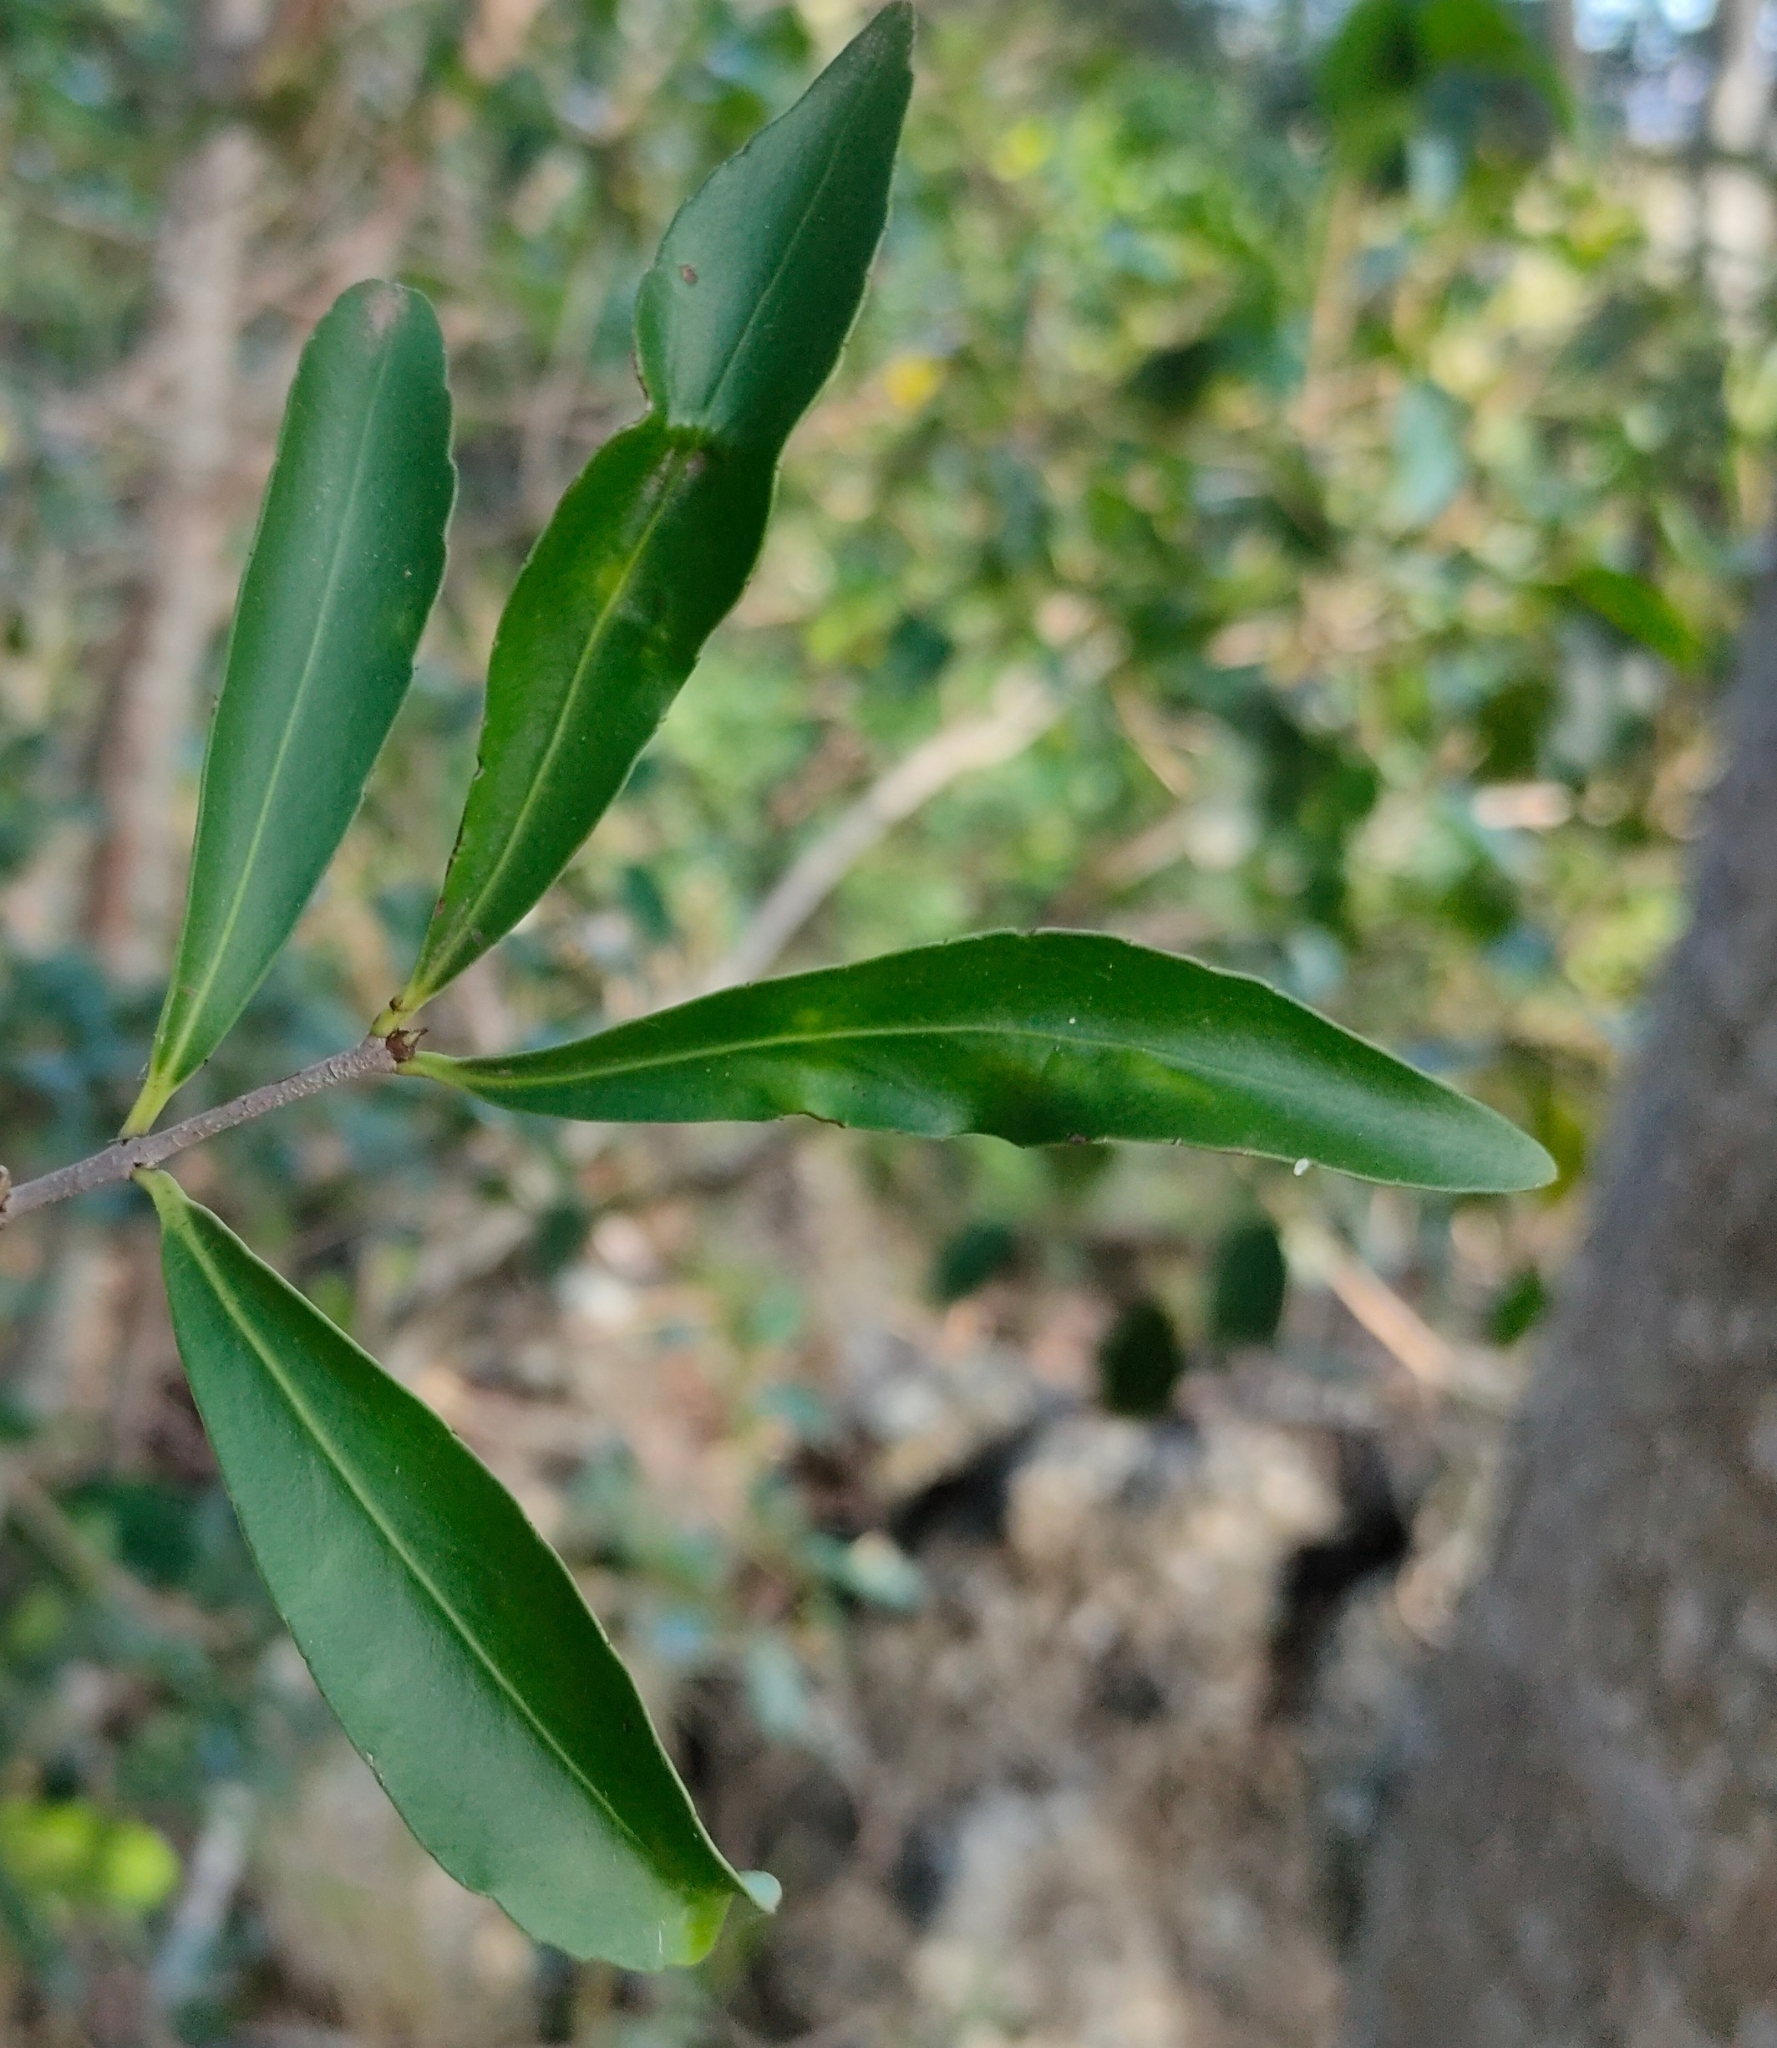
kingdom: Plantae
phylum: Tracheophyta
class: Magnoliopsida
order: Celastrales
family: Celastraceae
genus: Elaeodendron
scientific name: Elaeodendron australe
